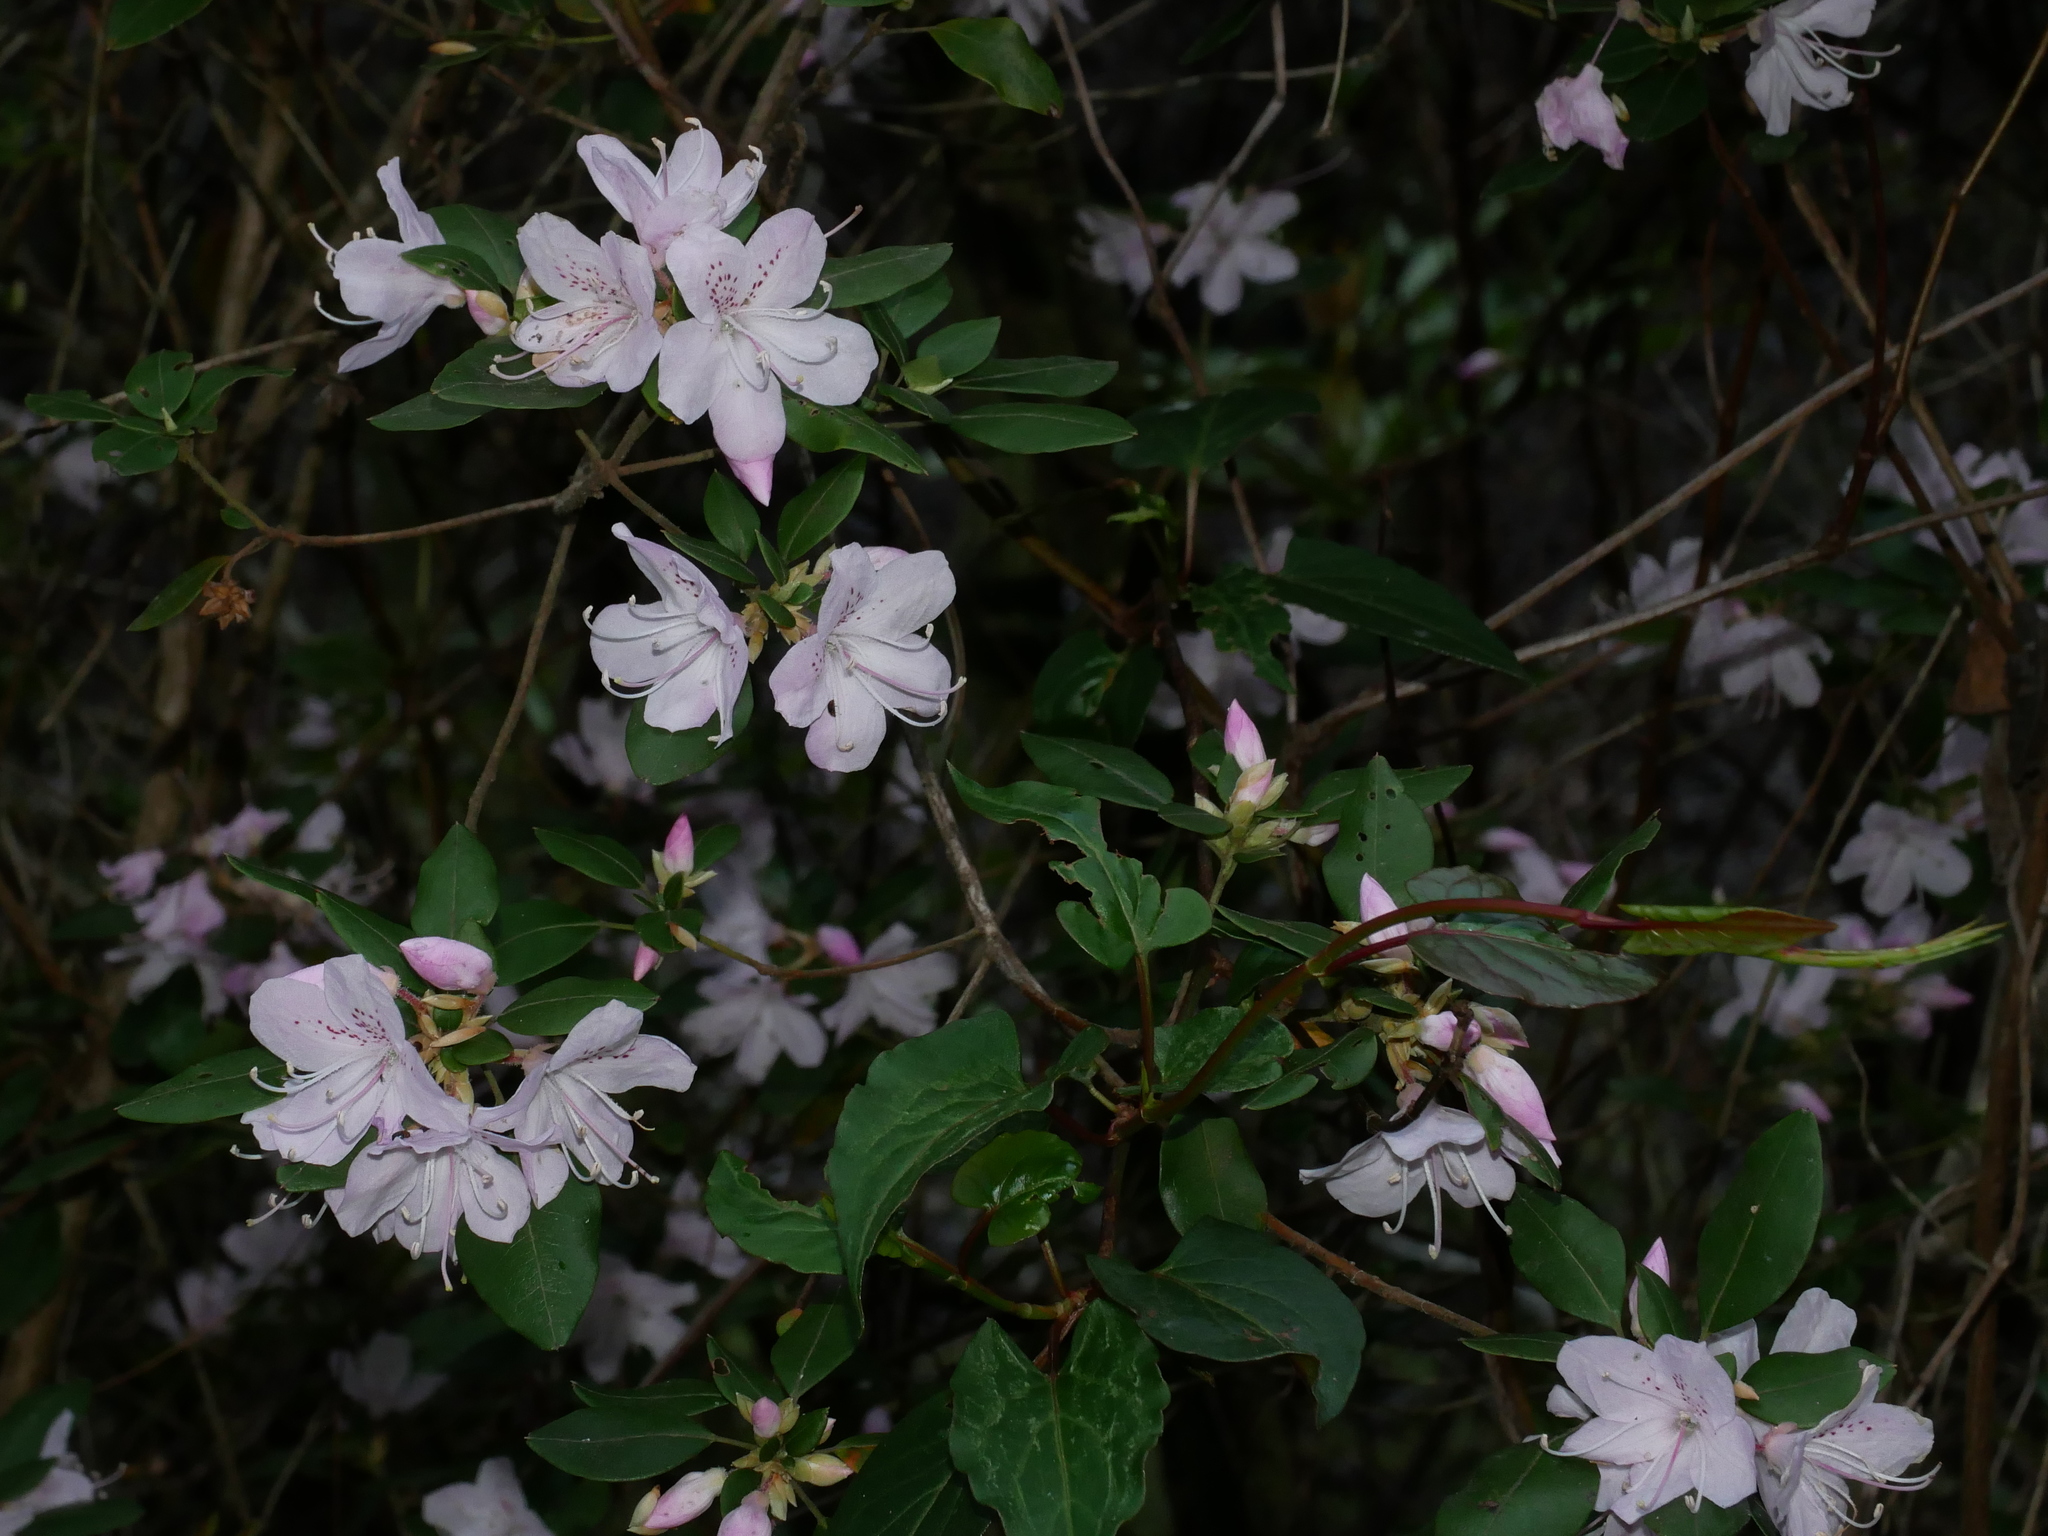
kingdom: Plantae
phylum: Tracheophyta
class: Magnoliopsida
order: Ericales
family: Ericaceae
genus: Rhododendron
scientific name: Rhododendron ovatum
